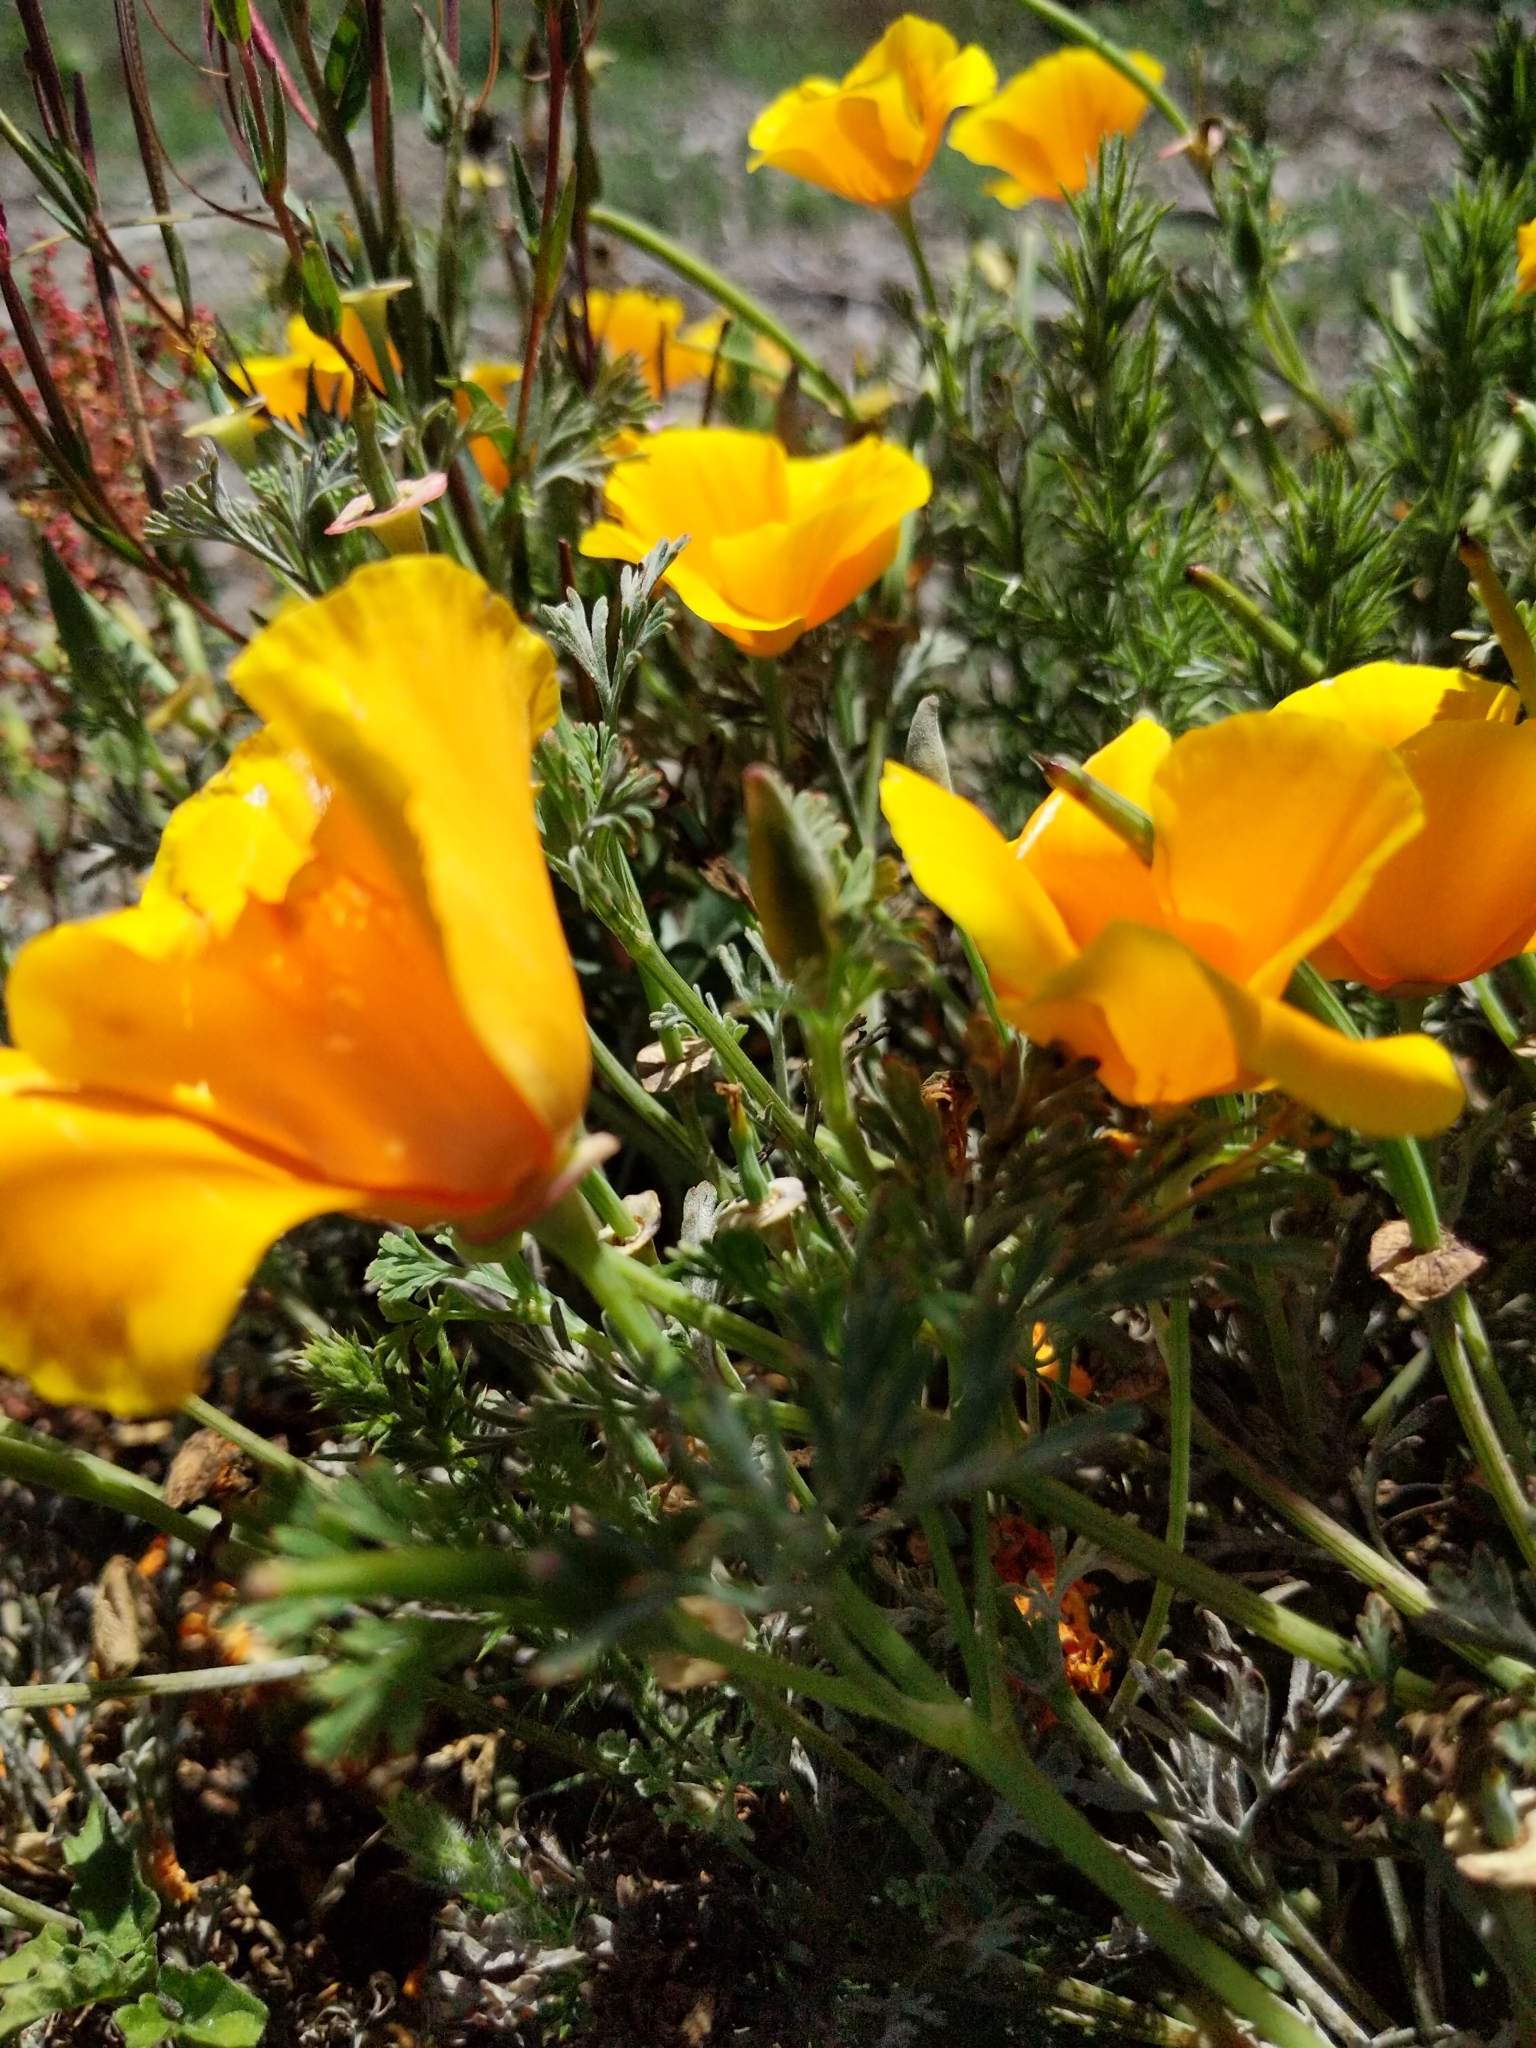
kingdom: Plantae
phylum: Tracheophyta
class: Magnoliopsida
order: Ranunculales
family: Papaveraceae
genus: Eschscholzia
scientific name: Eschscholzia californica
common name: California poppy
